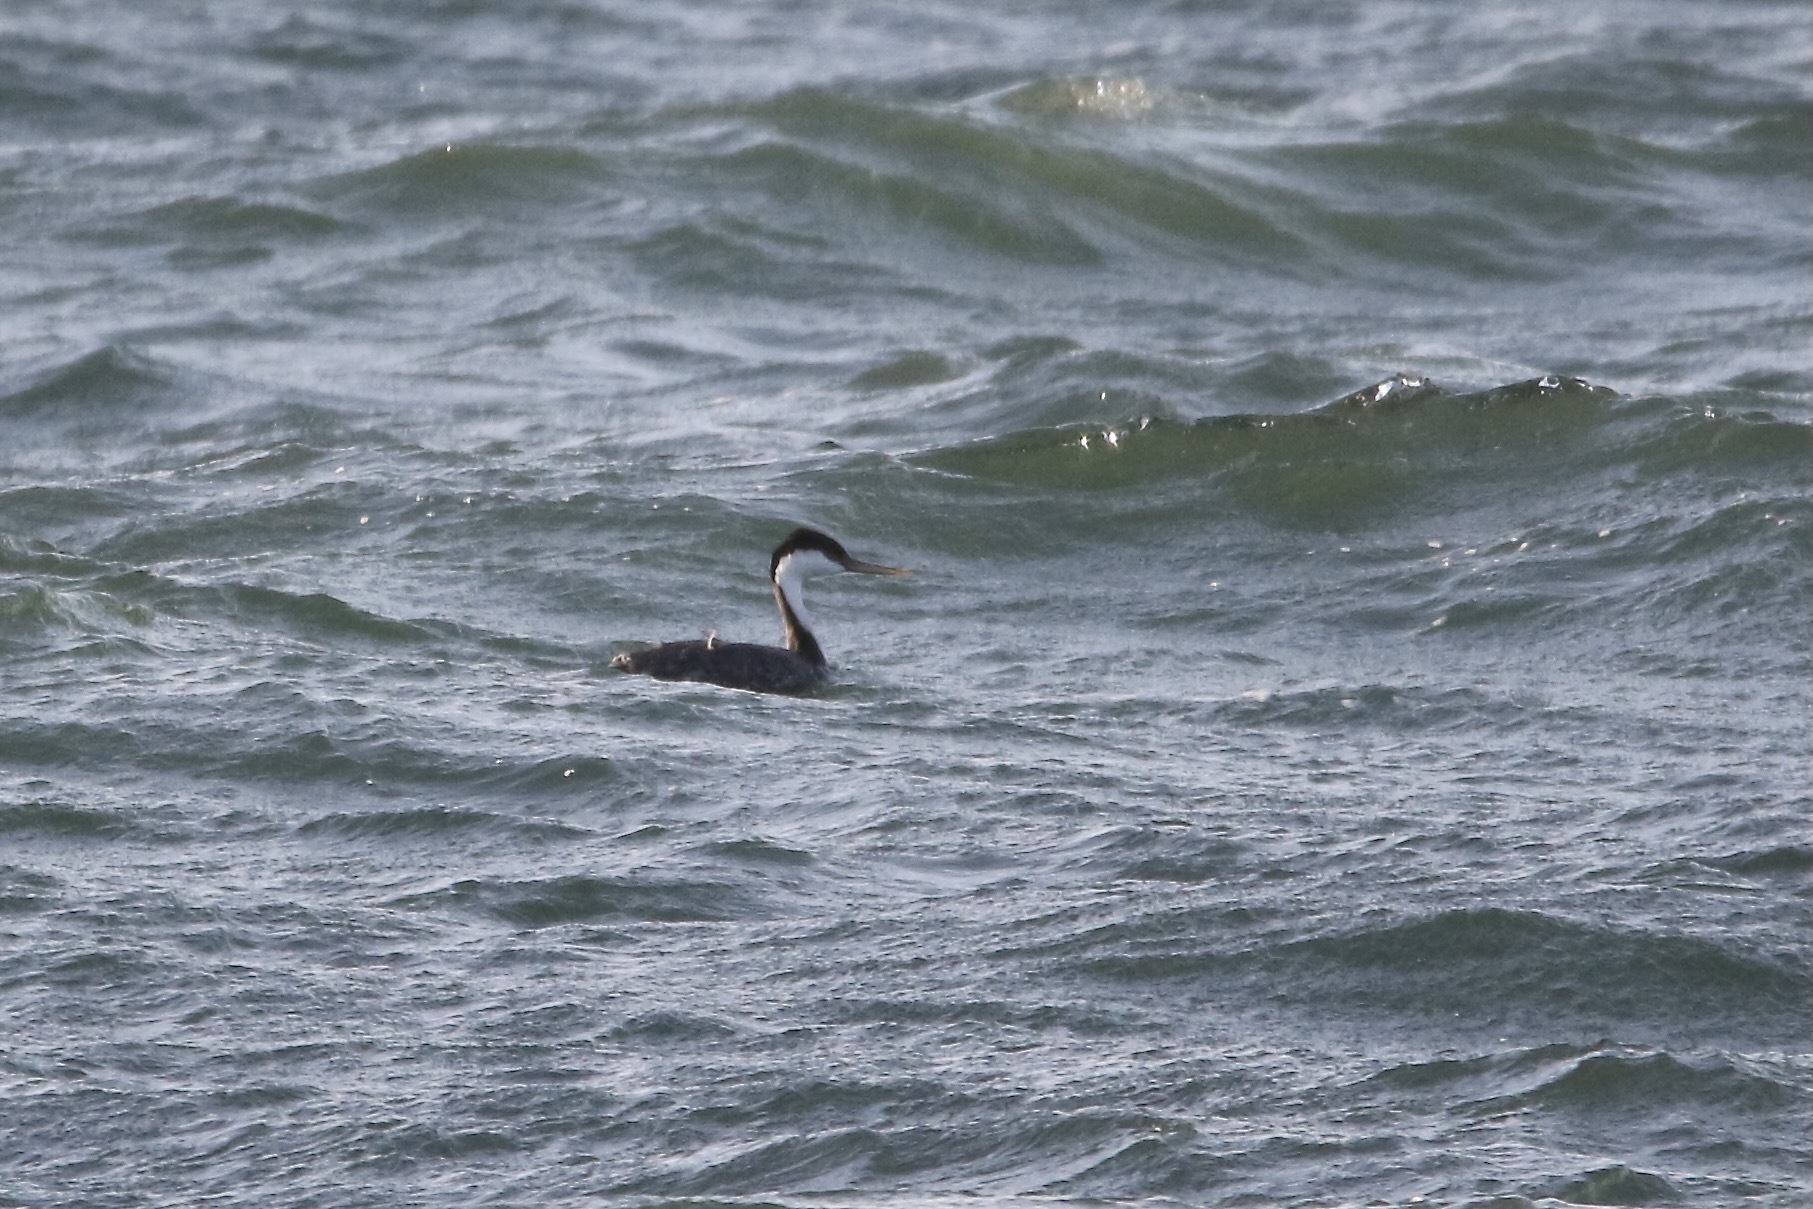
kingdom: Animalia
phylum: Chordata
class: Aves
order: Podicipediformes
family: Podicipedidae
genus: Aechmophorus
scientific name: Aechmophorus occidentalis
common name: Western grebe
